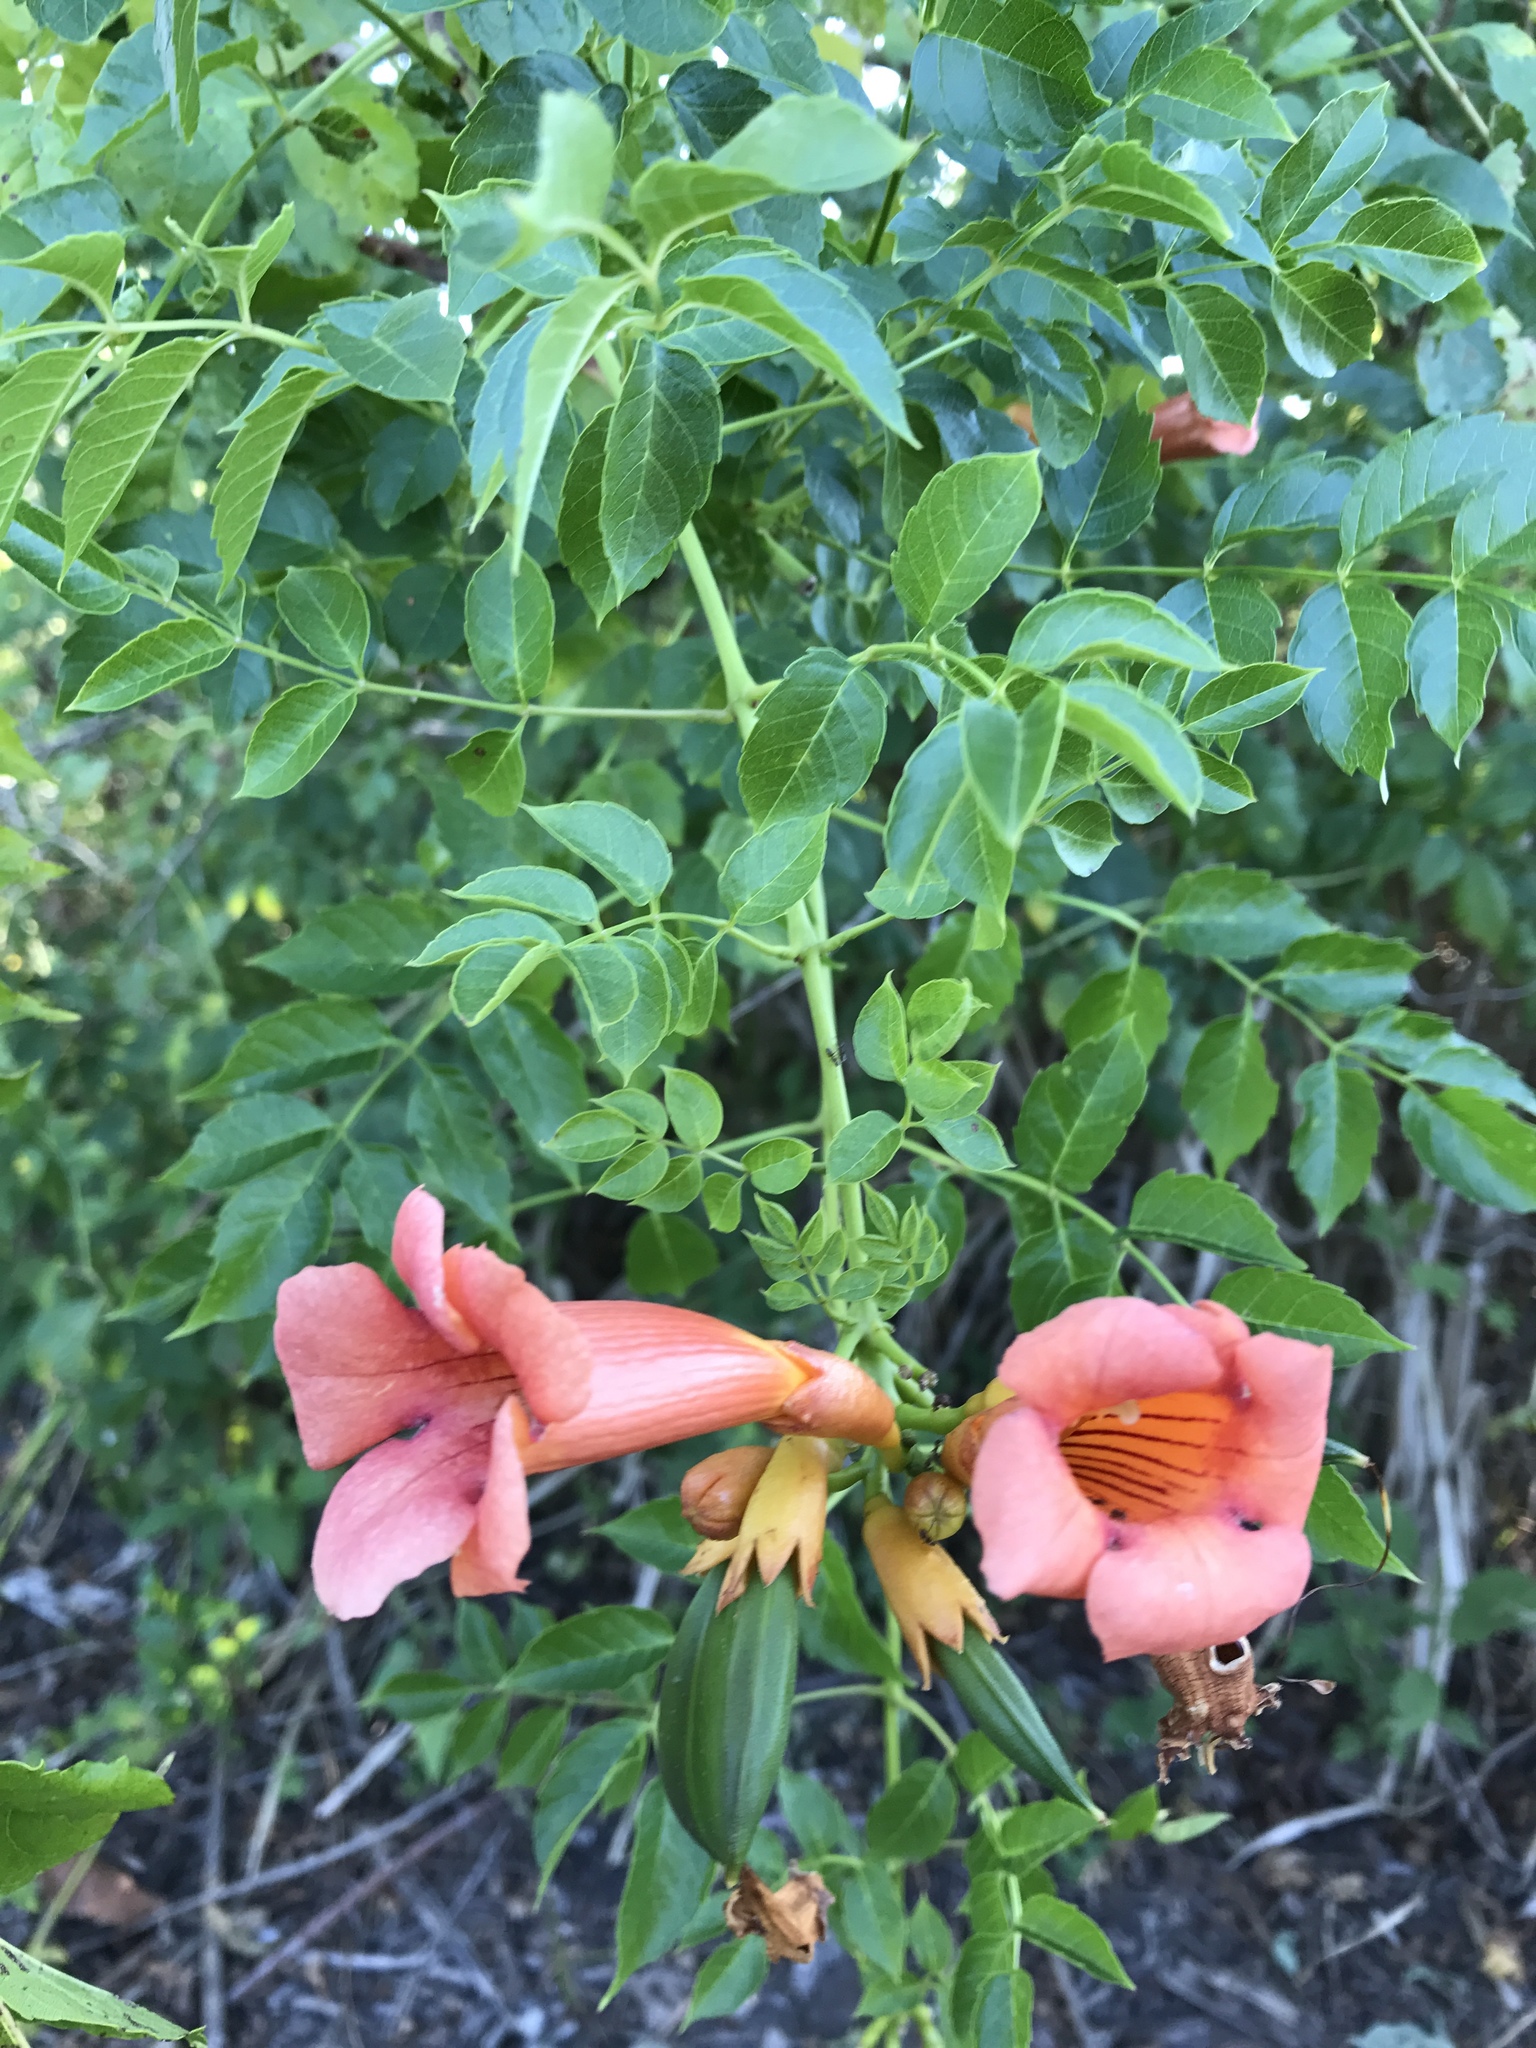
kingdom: Plantae
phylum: Tracheophyta
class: Magnoliopsida
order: Lamiales
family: Bignoniaceae
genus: Campsis
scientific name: Campsis radicans
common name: Trumpet-creeper
